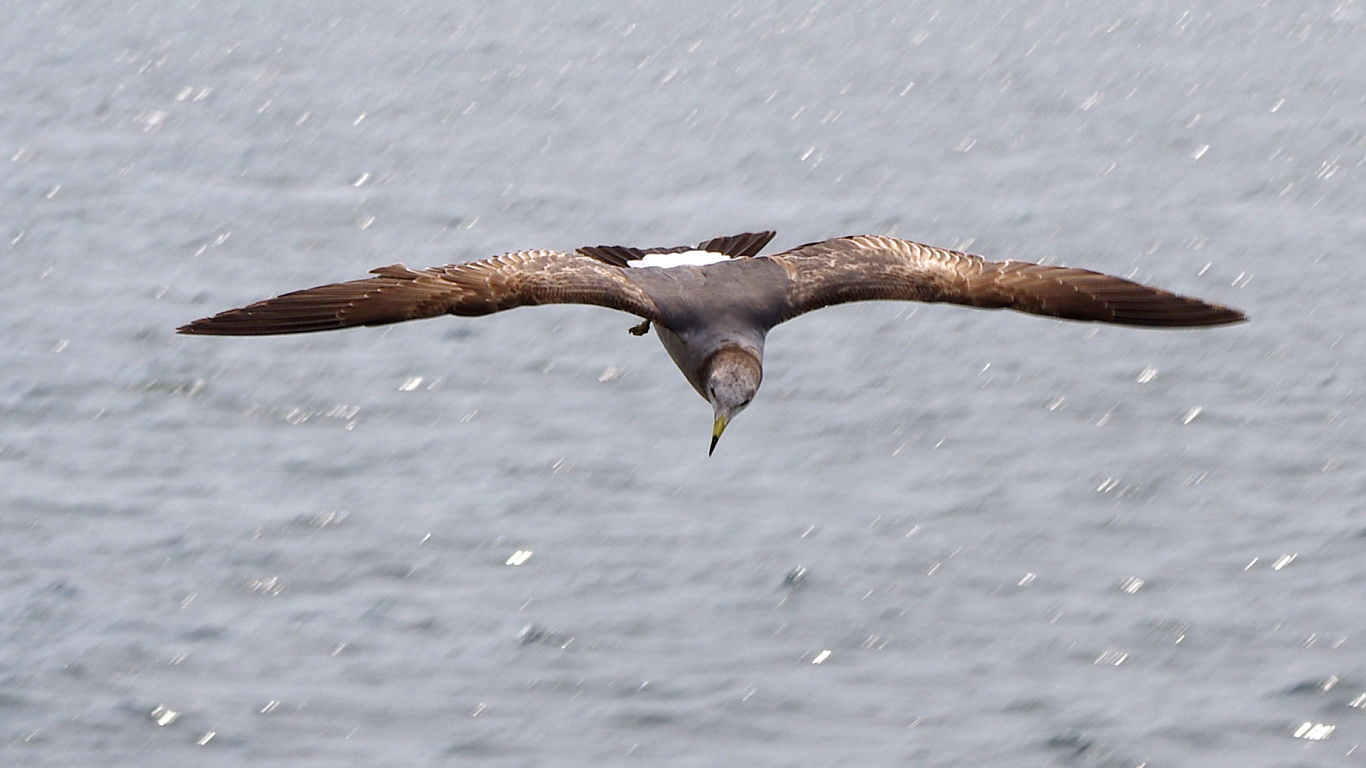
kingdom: Animalia
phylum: Chordata
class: Aves
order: Charadriiformes
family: Laridae
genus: Larus
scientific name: Larus crassirostris
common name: Black-tailed gull
